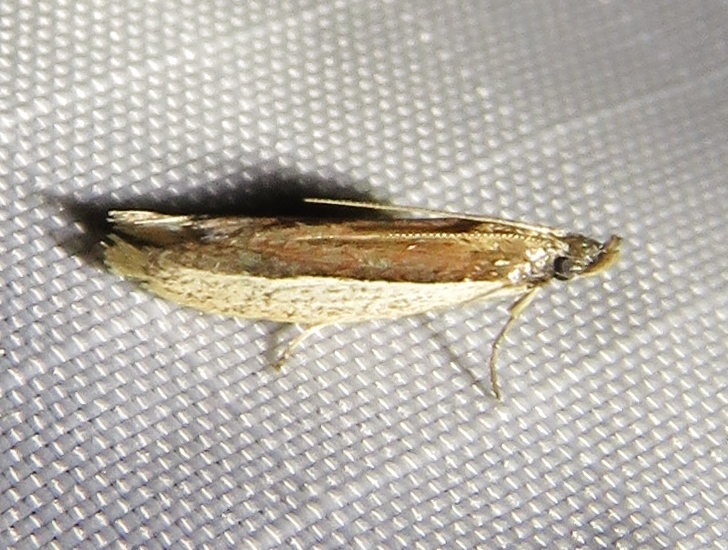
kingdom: Animalia
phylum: Arthropoda
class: Insecta
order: Lepidoptera
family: Pyralidae
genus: Tampa
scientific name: Tampa dimediatella
